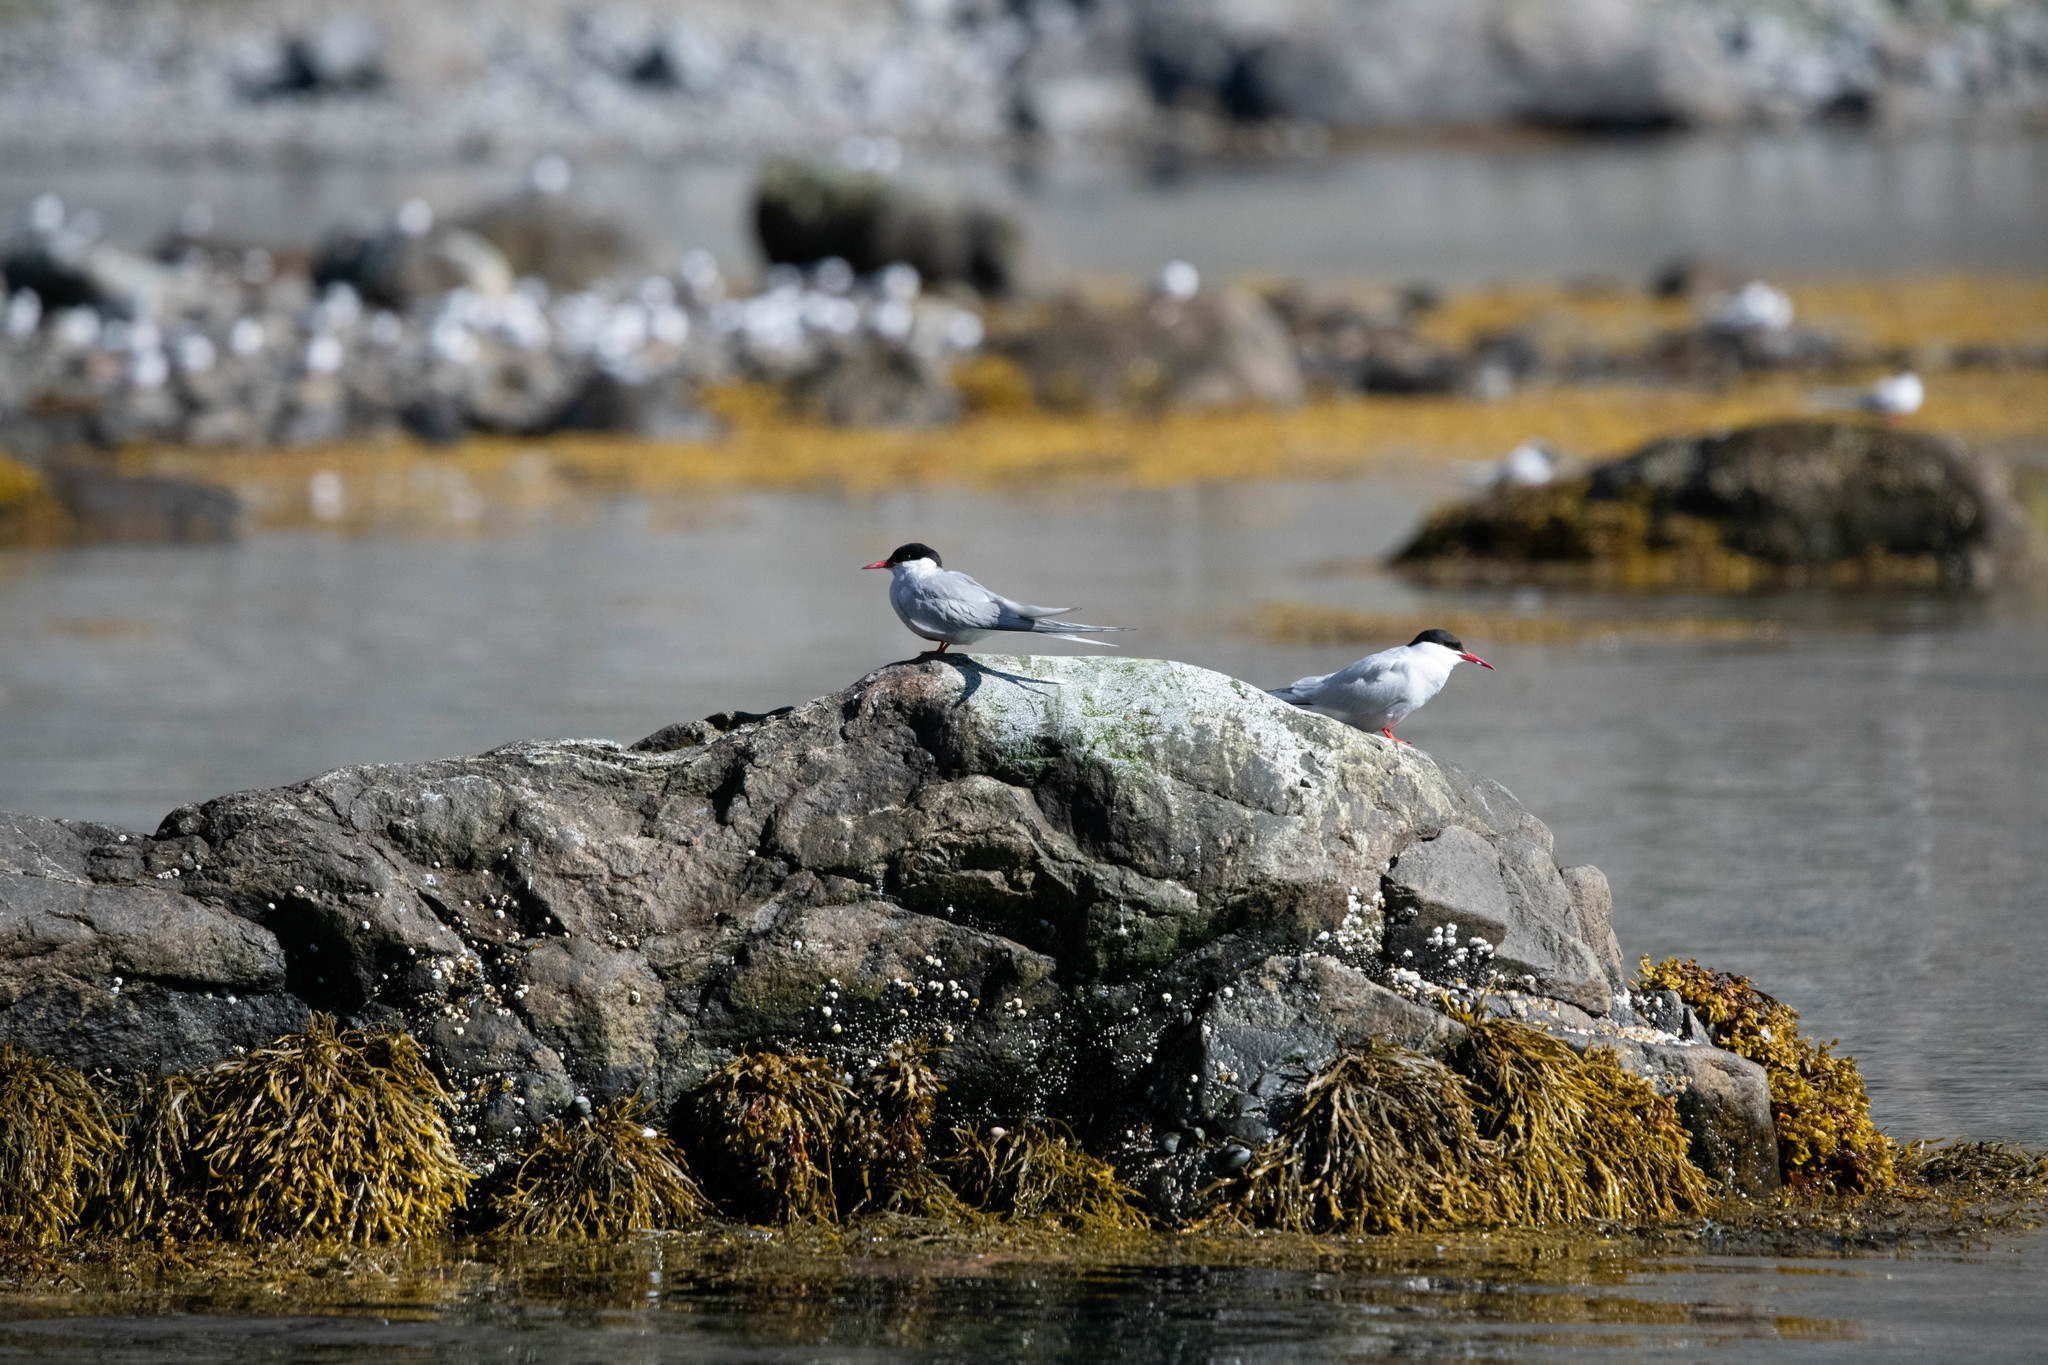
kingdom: Animalia
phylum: Chordata
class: Aves
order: Charadriiformes
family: Laridae
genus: Sterna
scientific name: Sterna paradisaea
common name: Arctic tern
